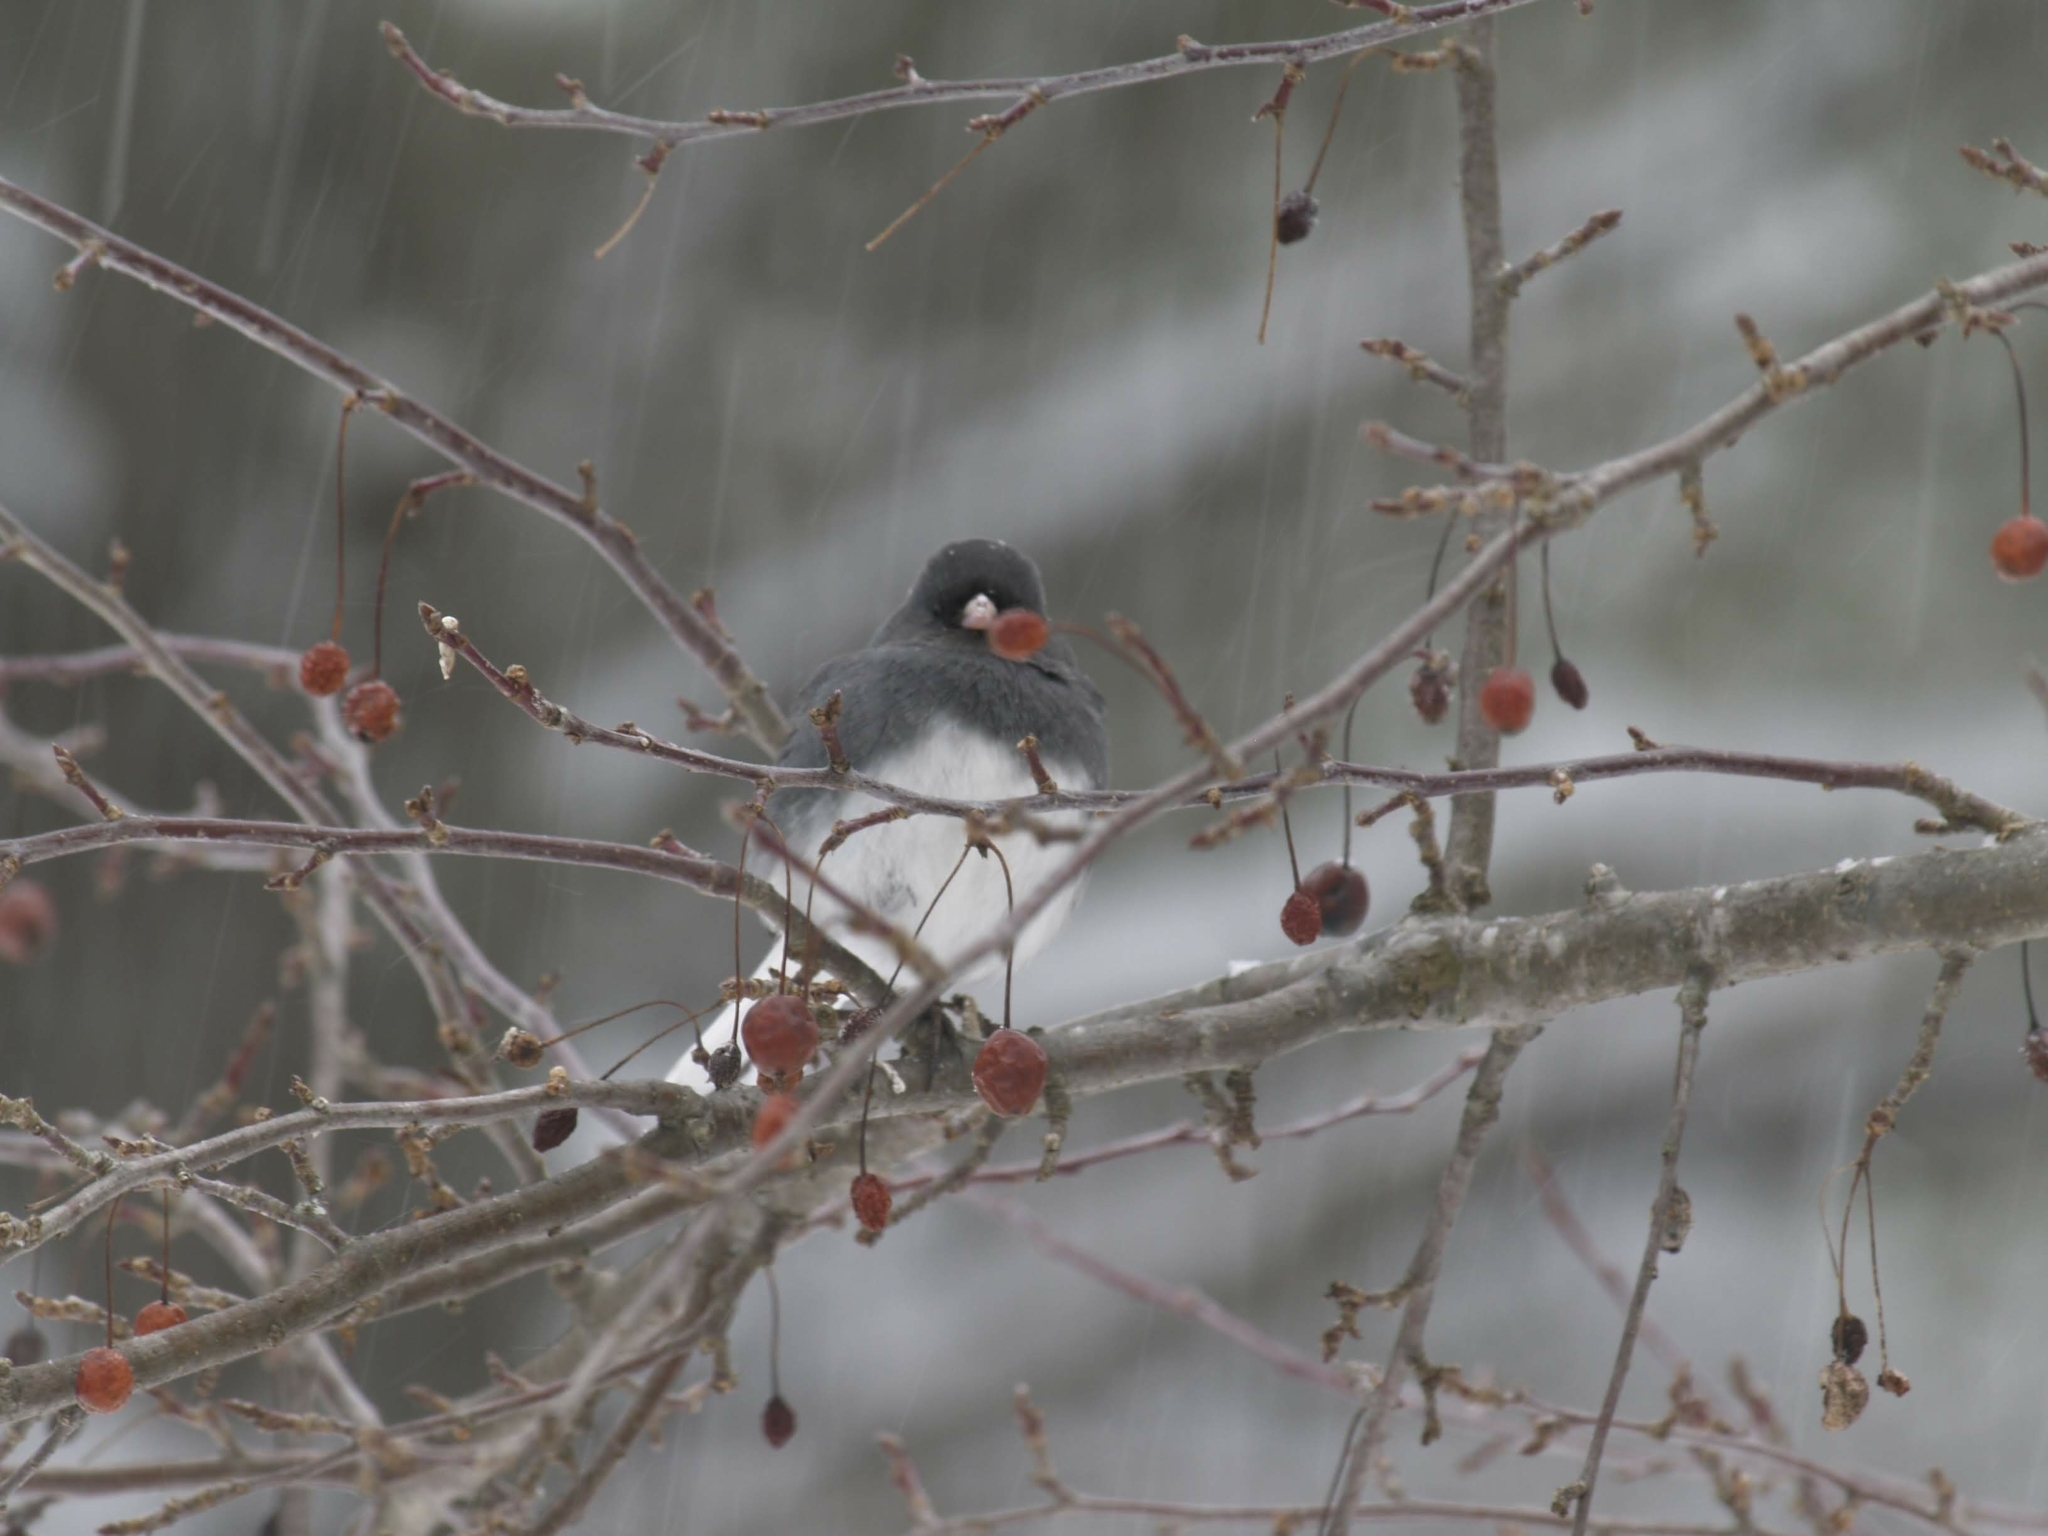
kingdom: Animalia
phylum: Chordata
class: Aves
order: Passeriformes
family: Passerellidae
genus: Junco
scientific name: Junco hyemalis
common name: Dark-eyed junco
